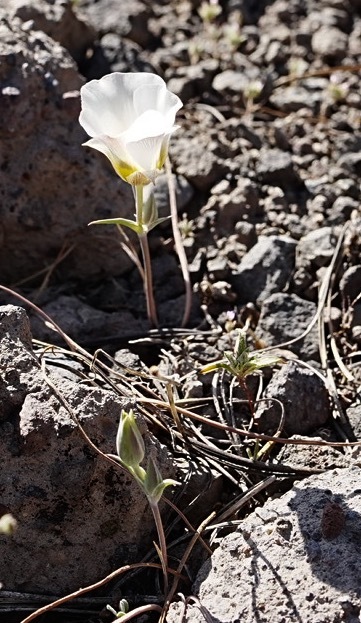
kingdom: Plantae
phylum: Tracheophyta
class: Liliopsida
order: Liliales
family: Liliaceae
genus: Calochortus
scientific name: Calochortus leichtlinii
